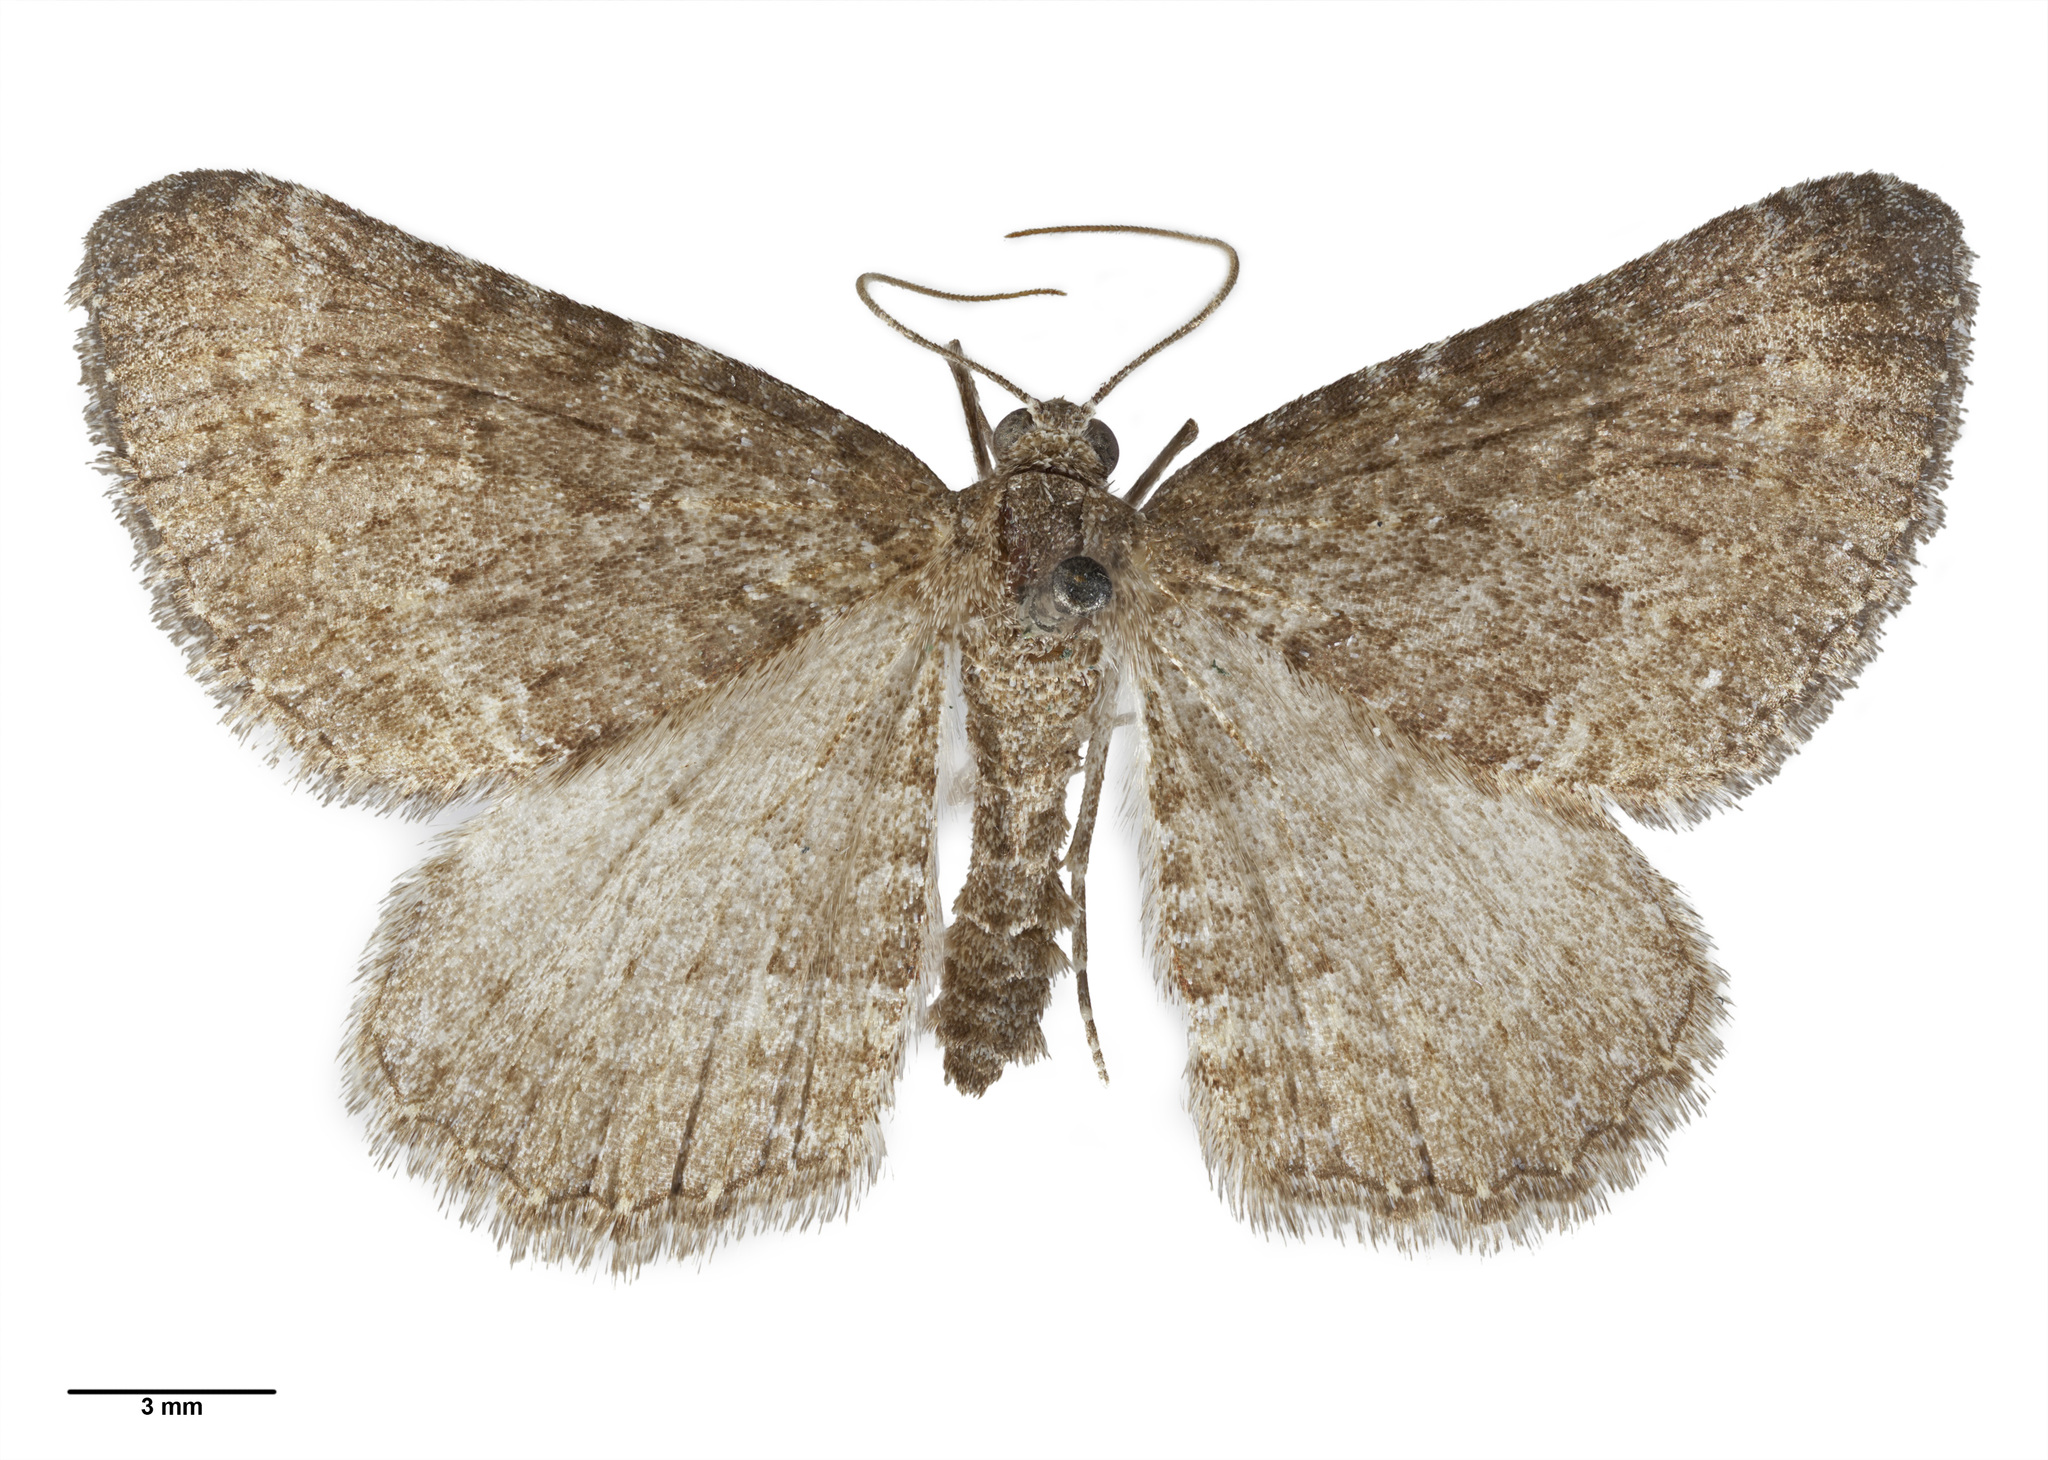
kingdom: Animalia
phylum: Arthropoda
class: Insecta
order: Lepidoptera
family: Geometridae
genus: Hydriomena
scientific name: Hydriomena clarkei
